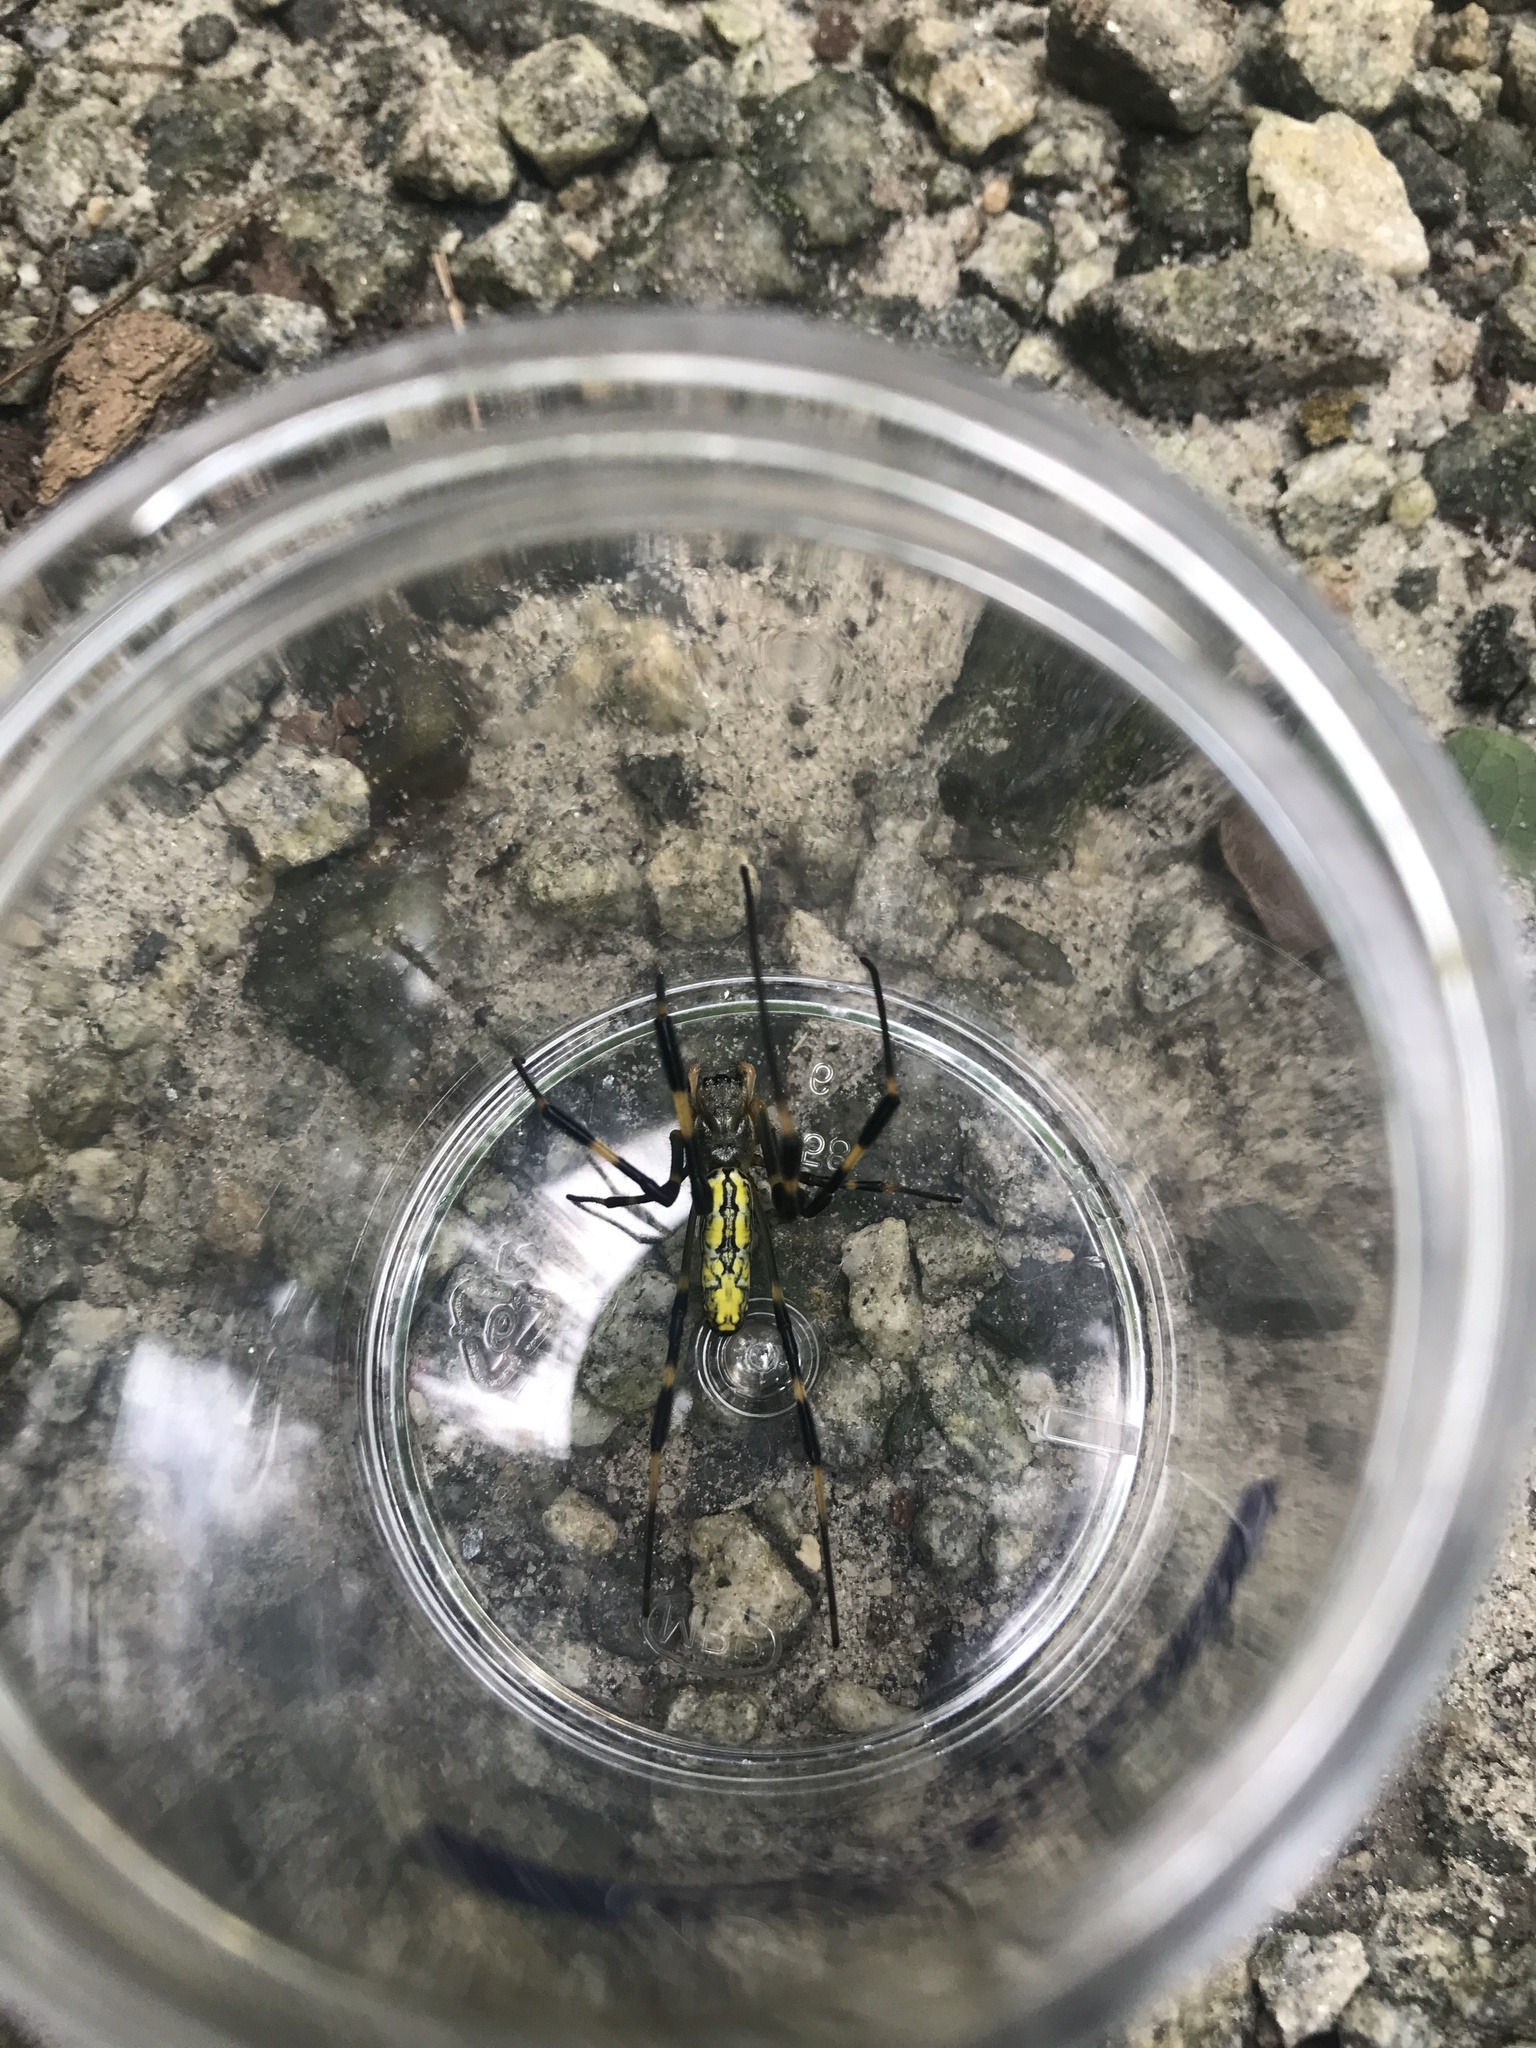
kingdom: Animalia
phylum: Arthropoda
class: Arachnida
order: Araneae
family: Araneidae
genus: Trichonephila
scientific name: Trichonephila clavata
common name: Jorō spider
